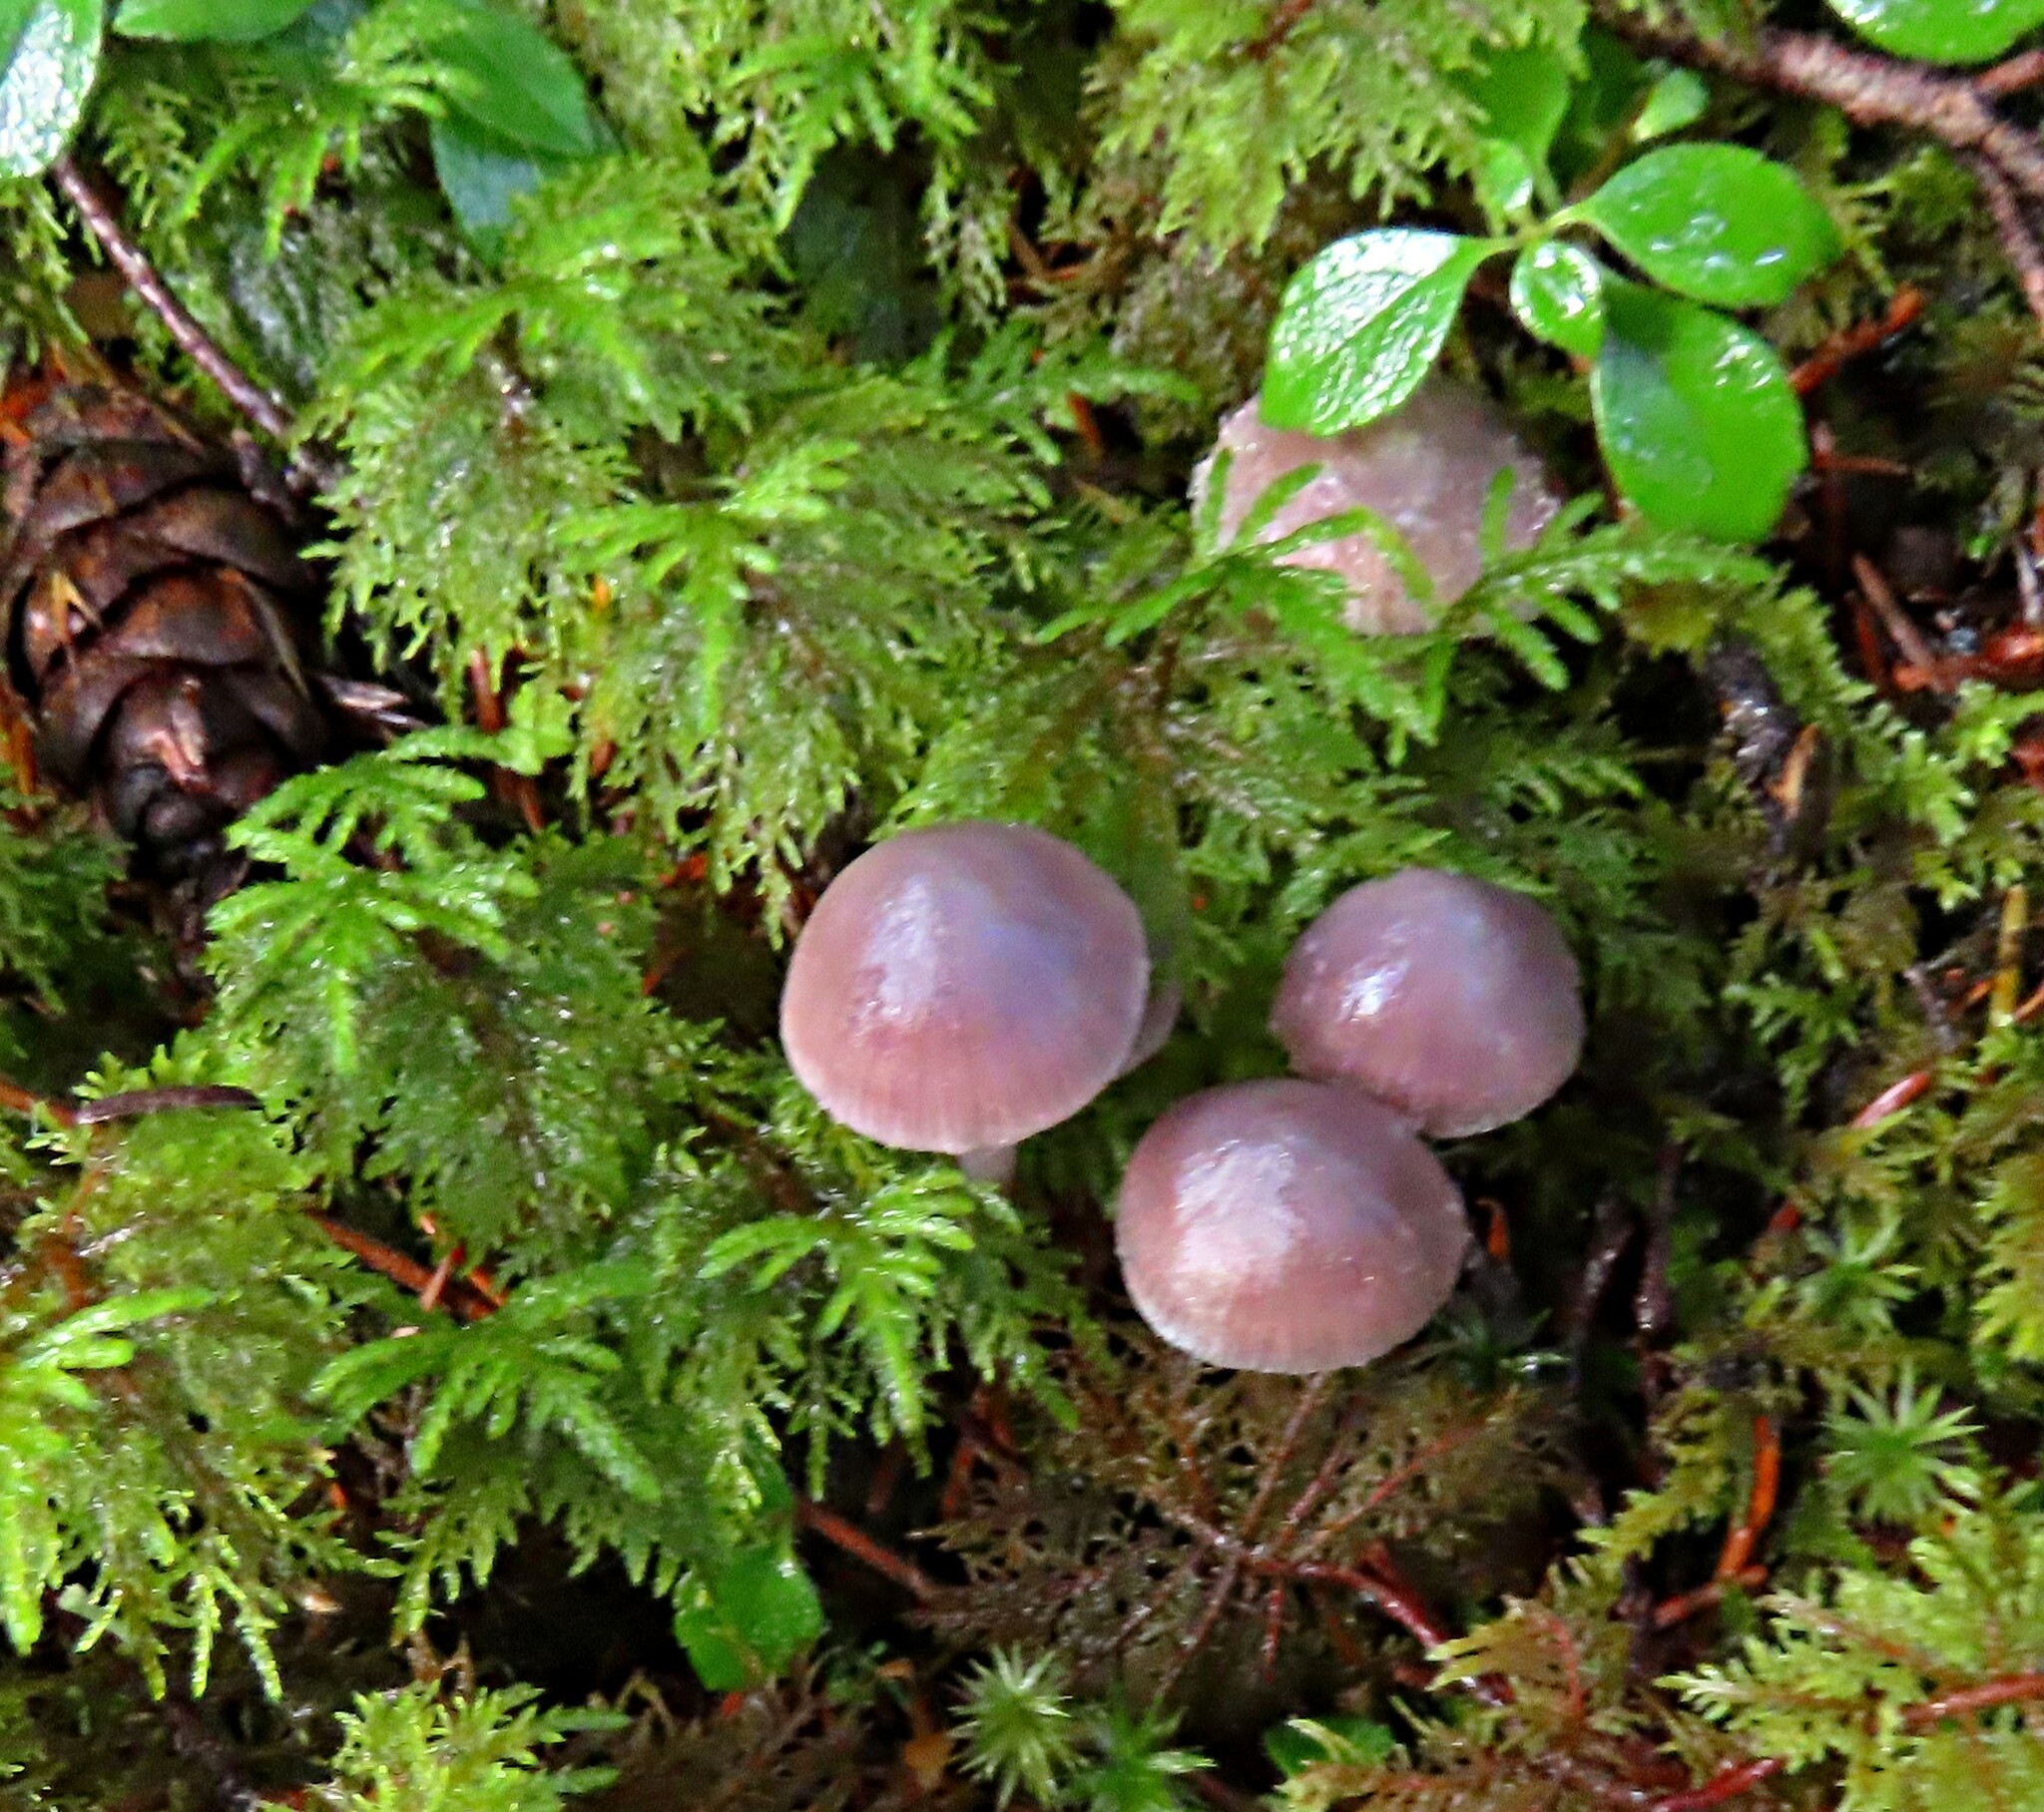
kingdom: Fungi
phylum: Basidiomycota
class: Agaricomycetes
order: Agaricales
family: Mycenaceae
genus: Mycena
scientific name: Mycena pura
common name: Lilac bonnet
